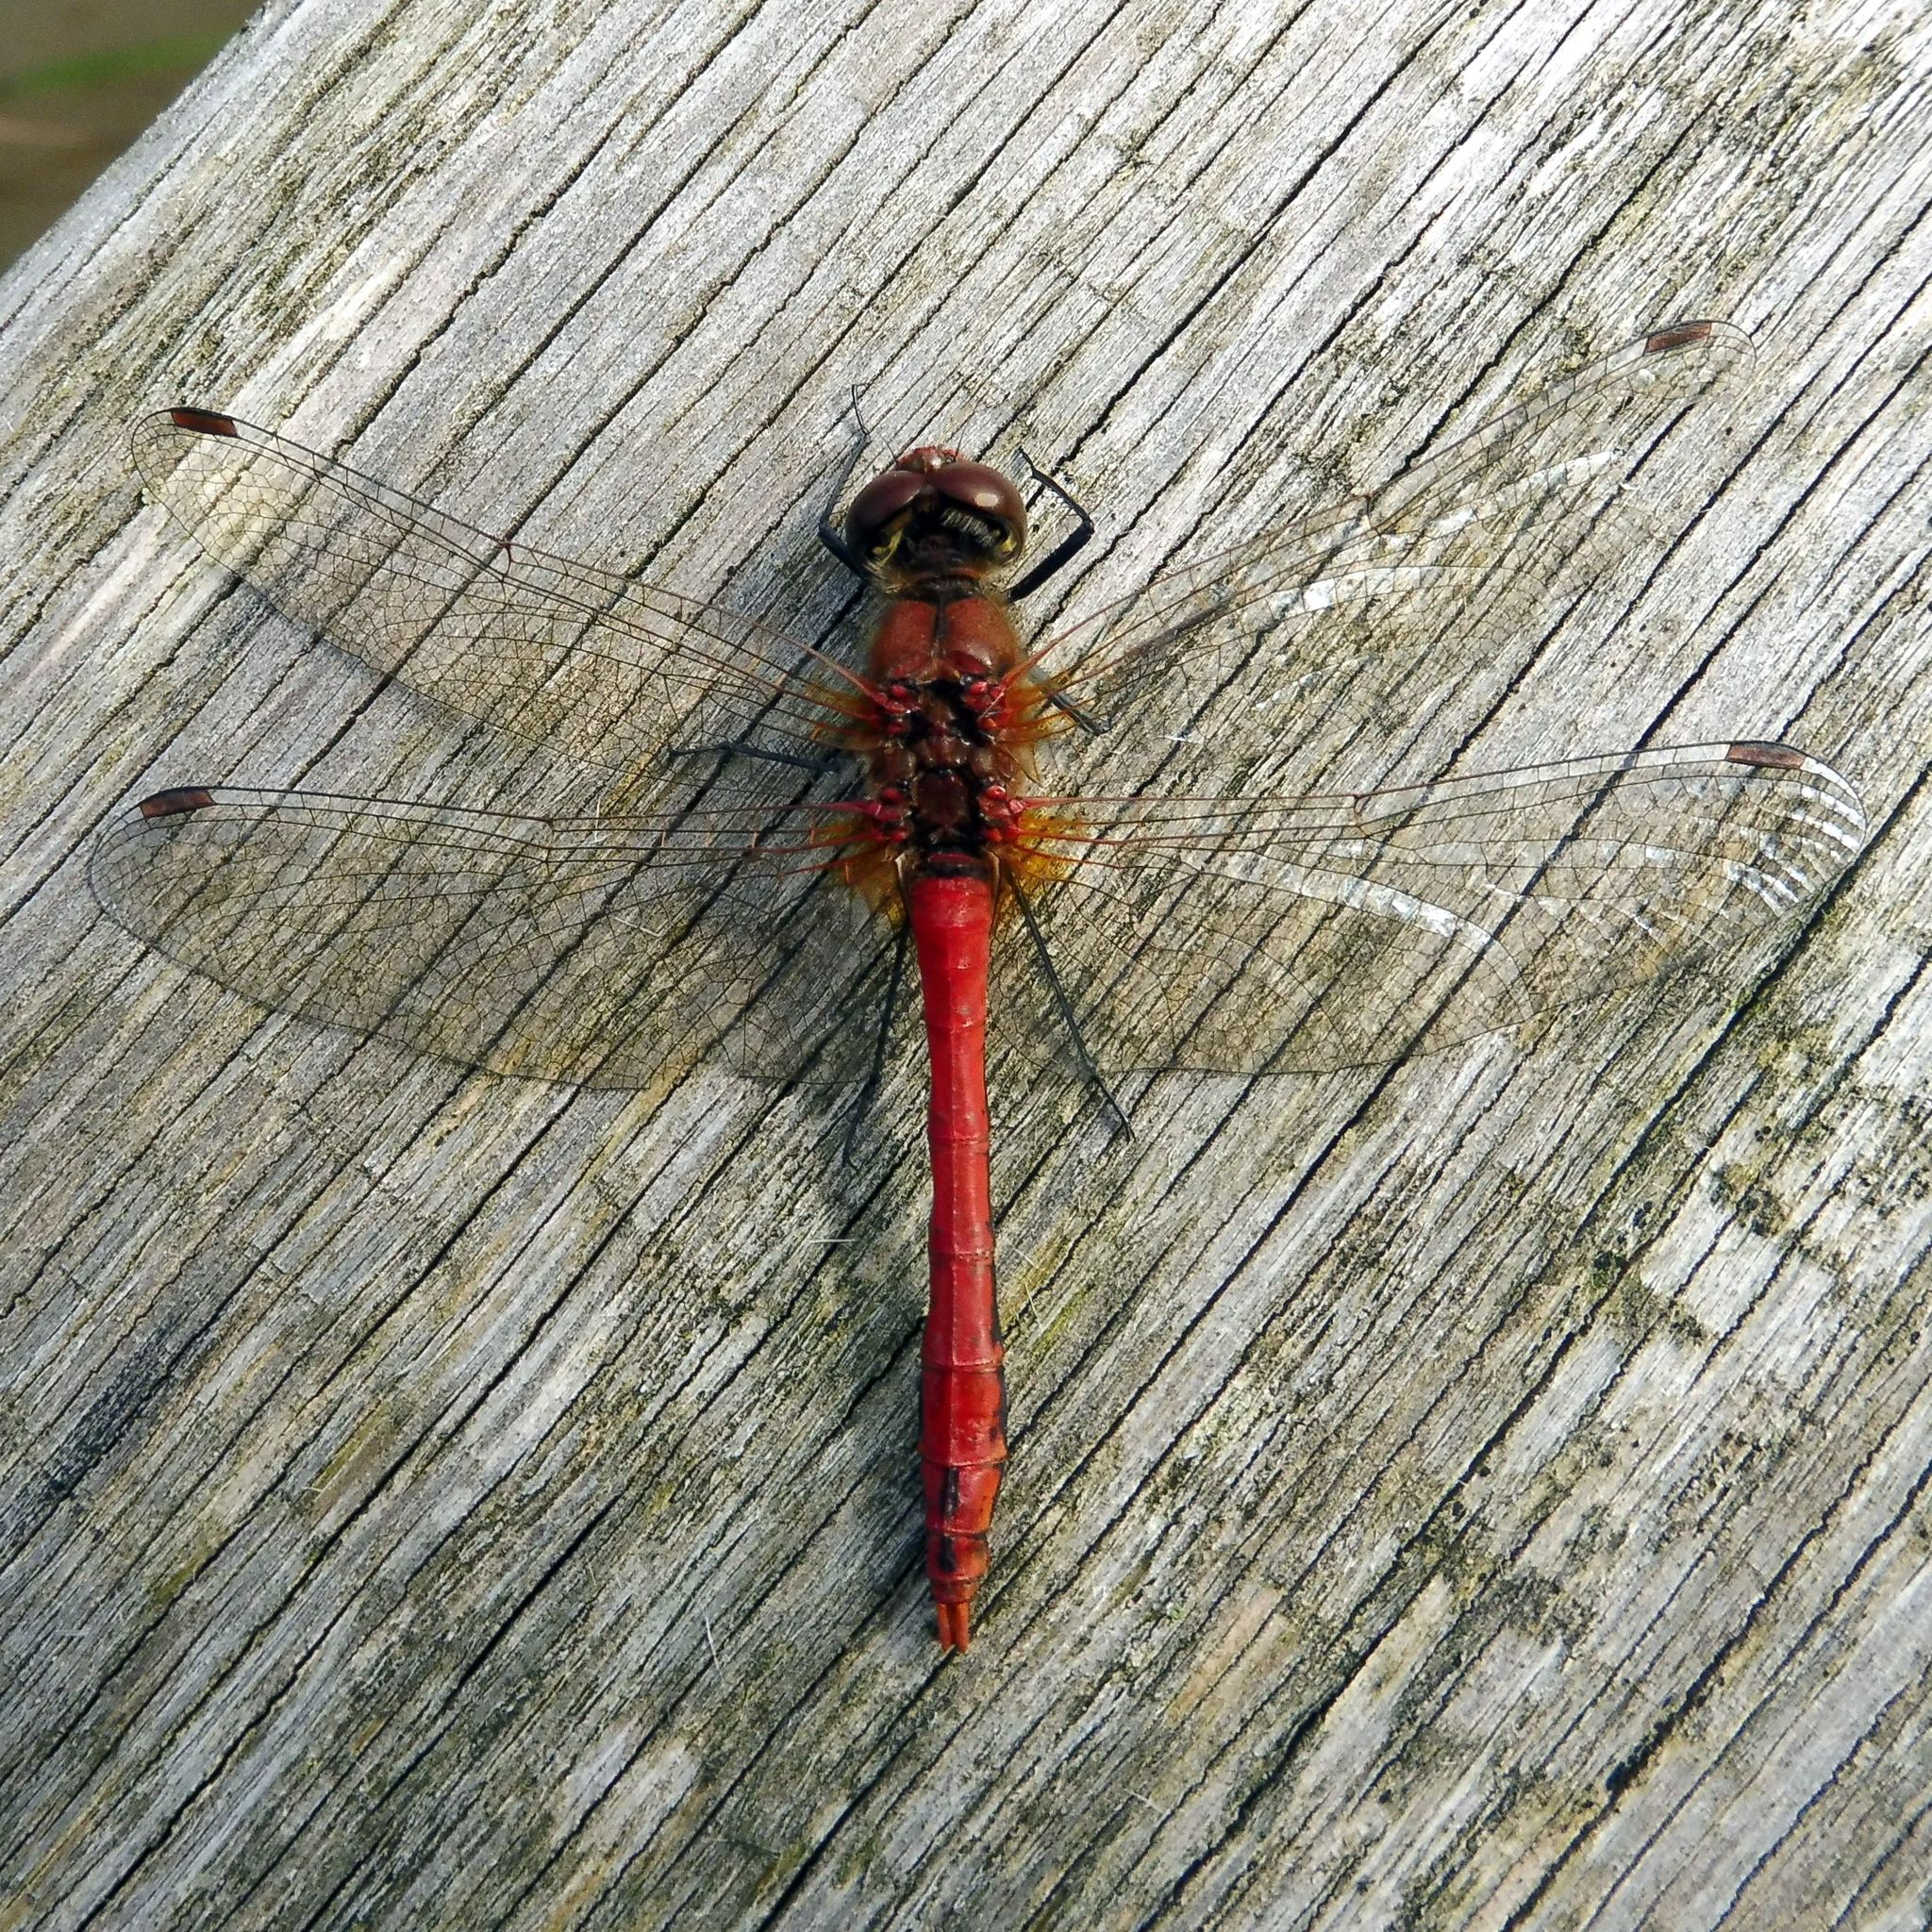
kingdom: Animalia
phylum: Arthropoda
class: Insecta
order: Odonata
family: Libellulidae
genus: Sympetrum
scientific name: Sympetrum sanguineum
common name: Ruddy darter
